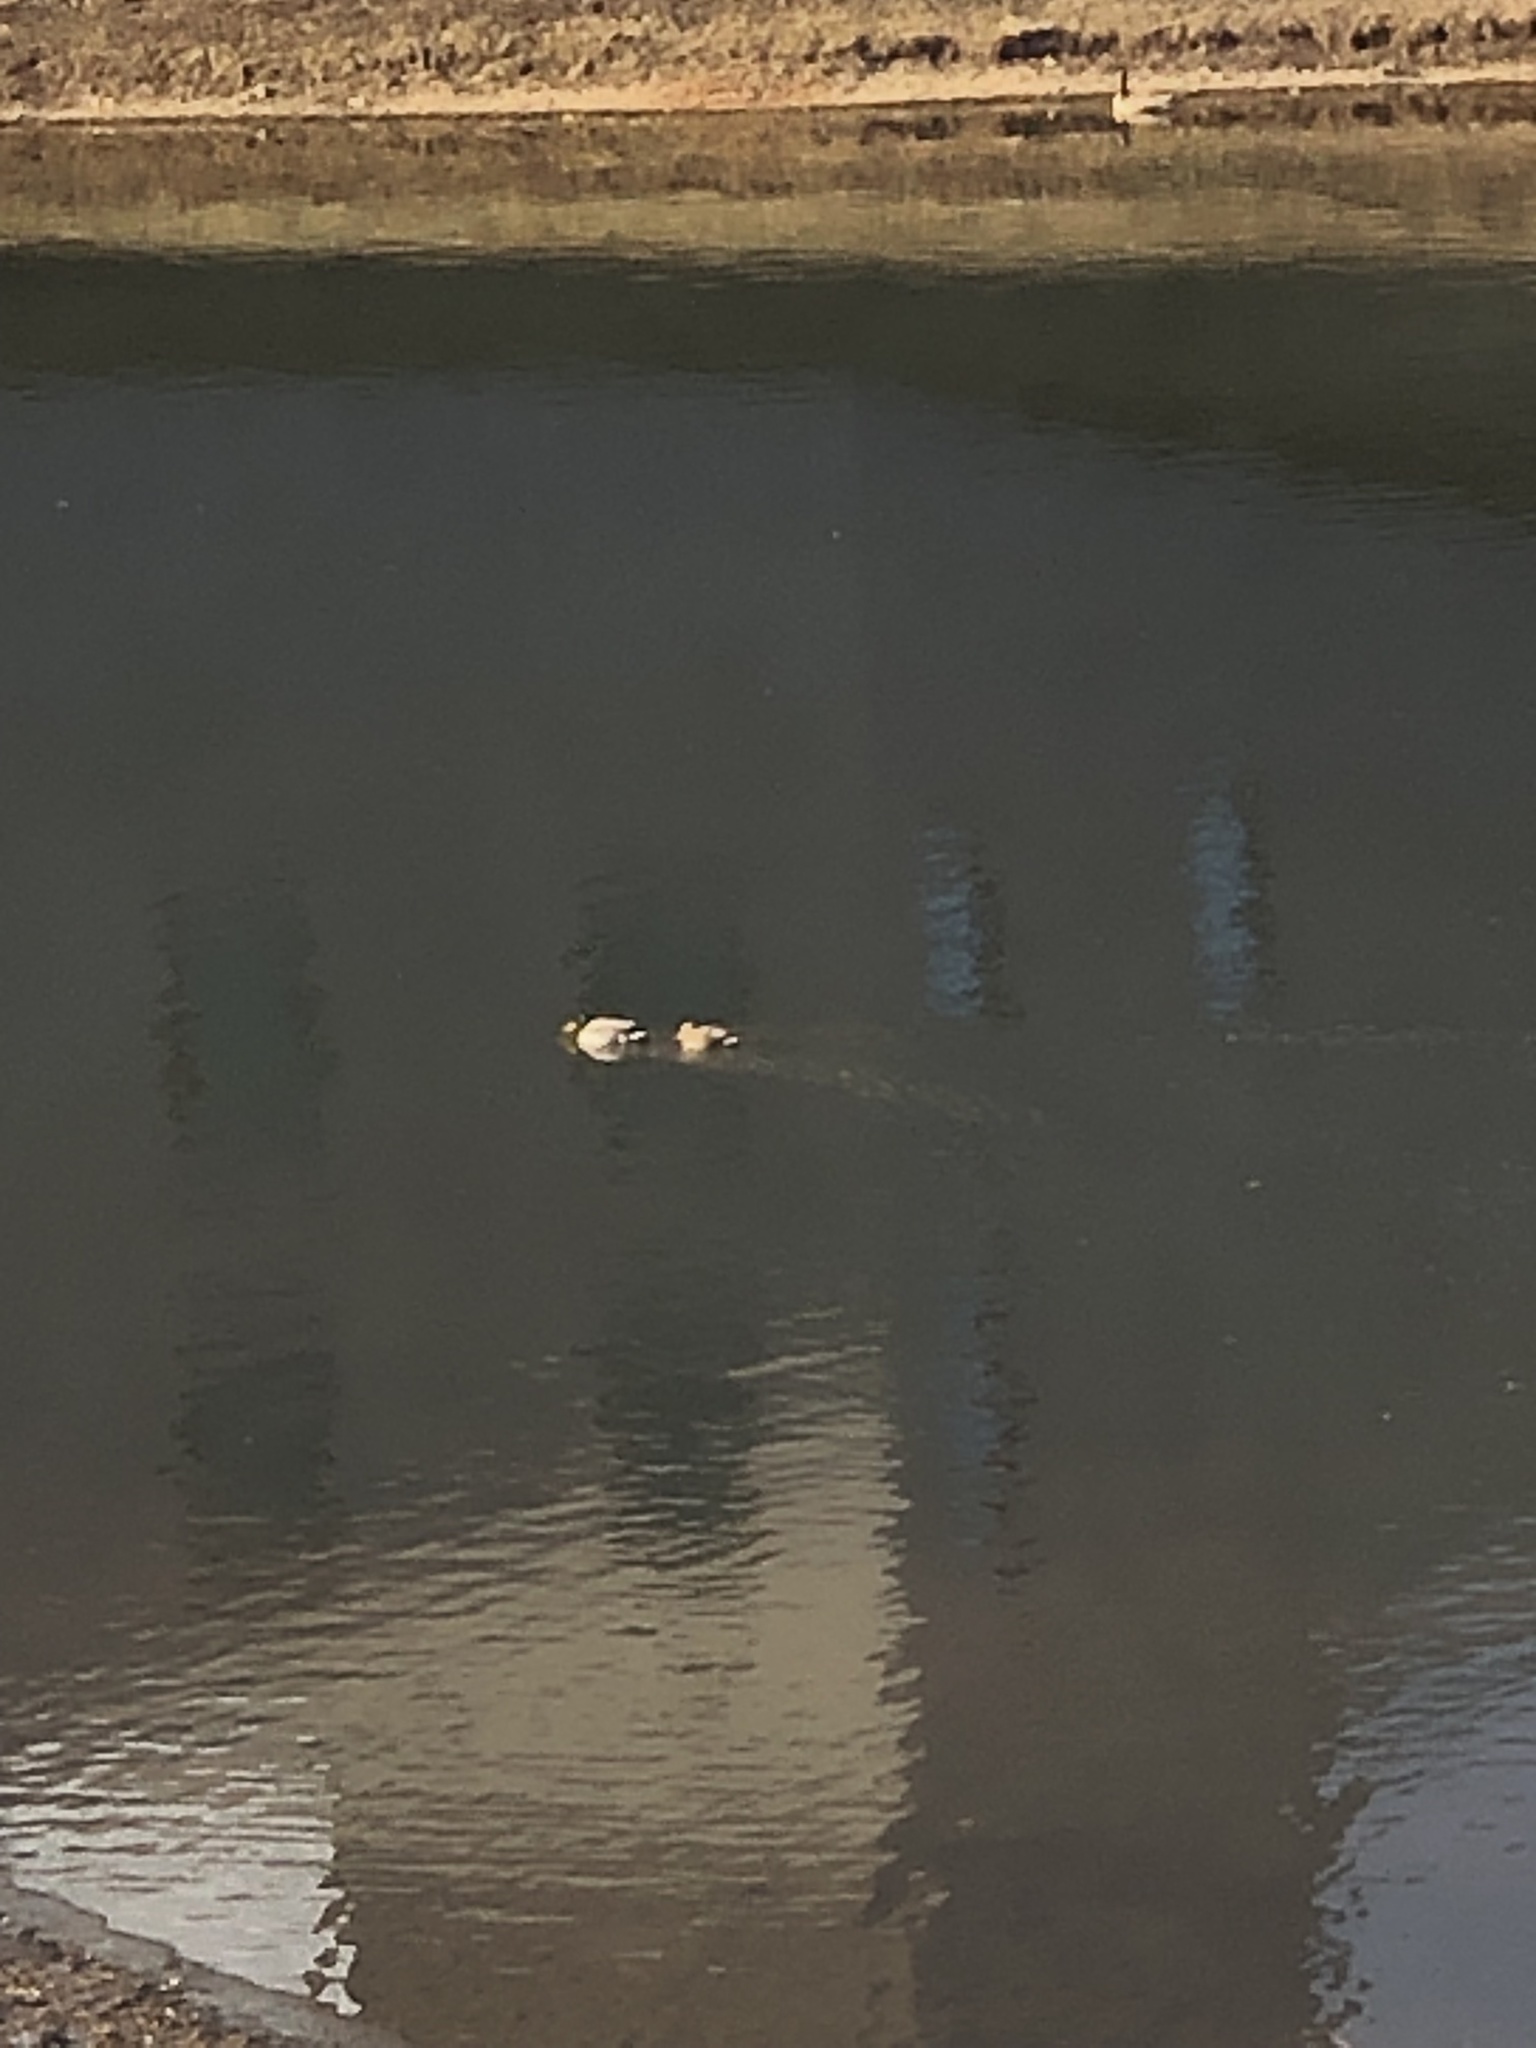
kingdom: Animalia
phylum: Chordata
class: Aves
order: Anseriformes
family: Anatidae
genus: Anas
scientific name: Anas platyrhynchos
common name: Mallard
